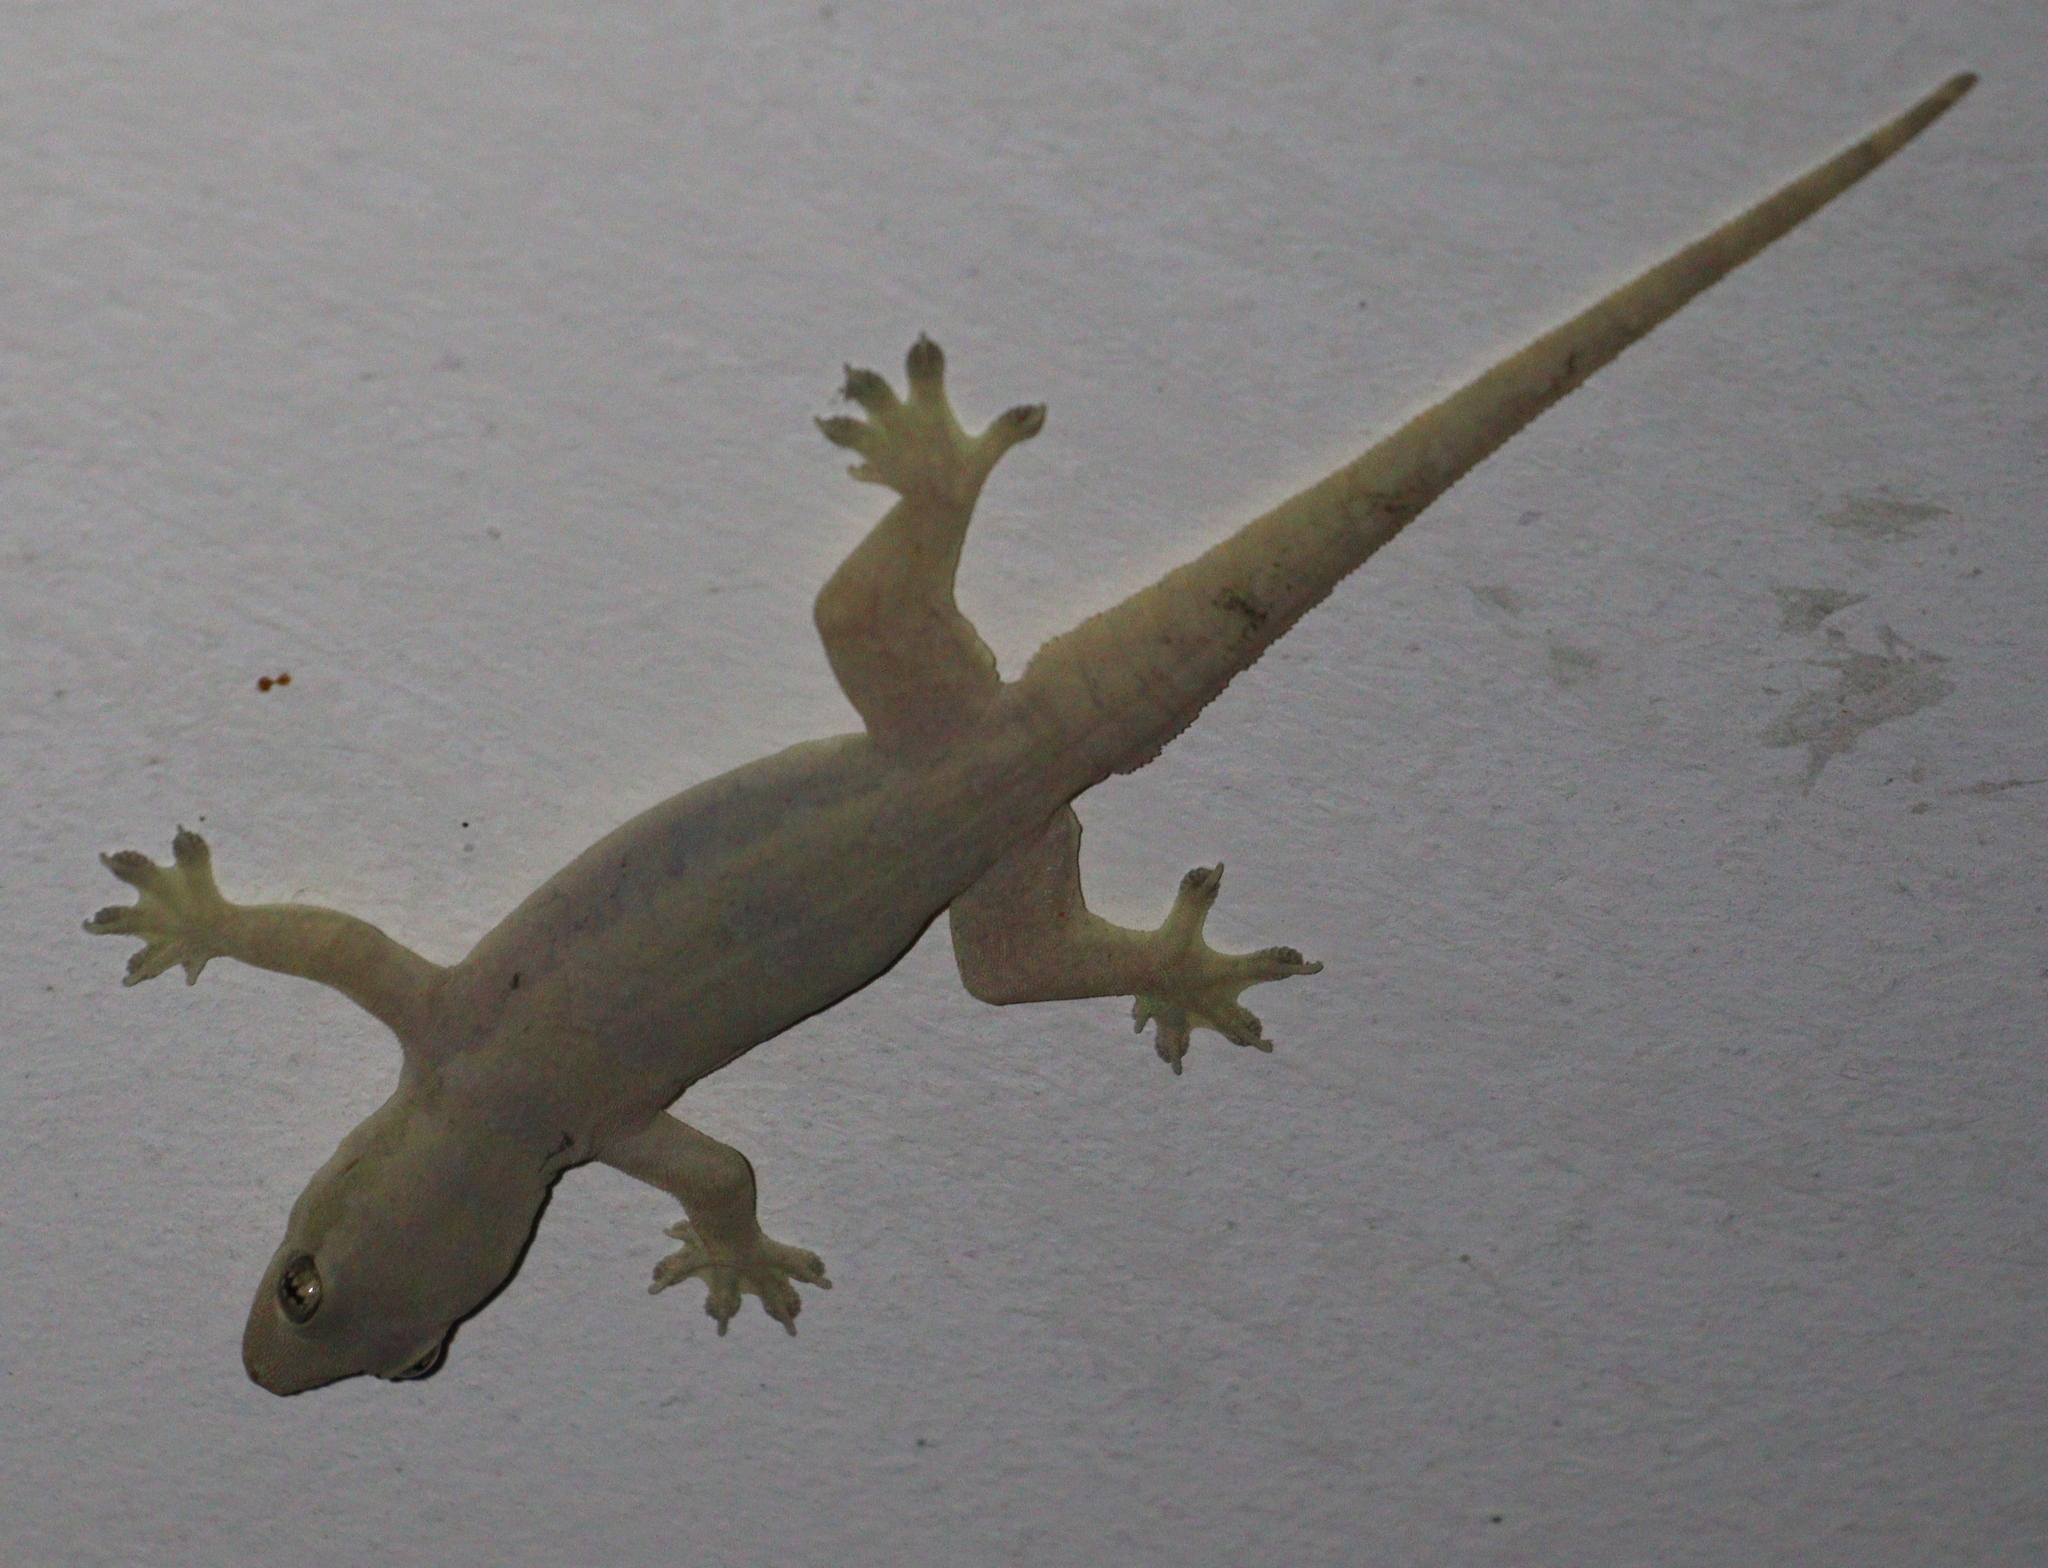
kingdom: Animalia
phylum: Chordata
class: Squamata
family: Gekkonidae
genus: Hemidactylus
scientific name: Hemidactylus platyurus
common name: Flat-tailed house gecko
